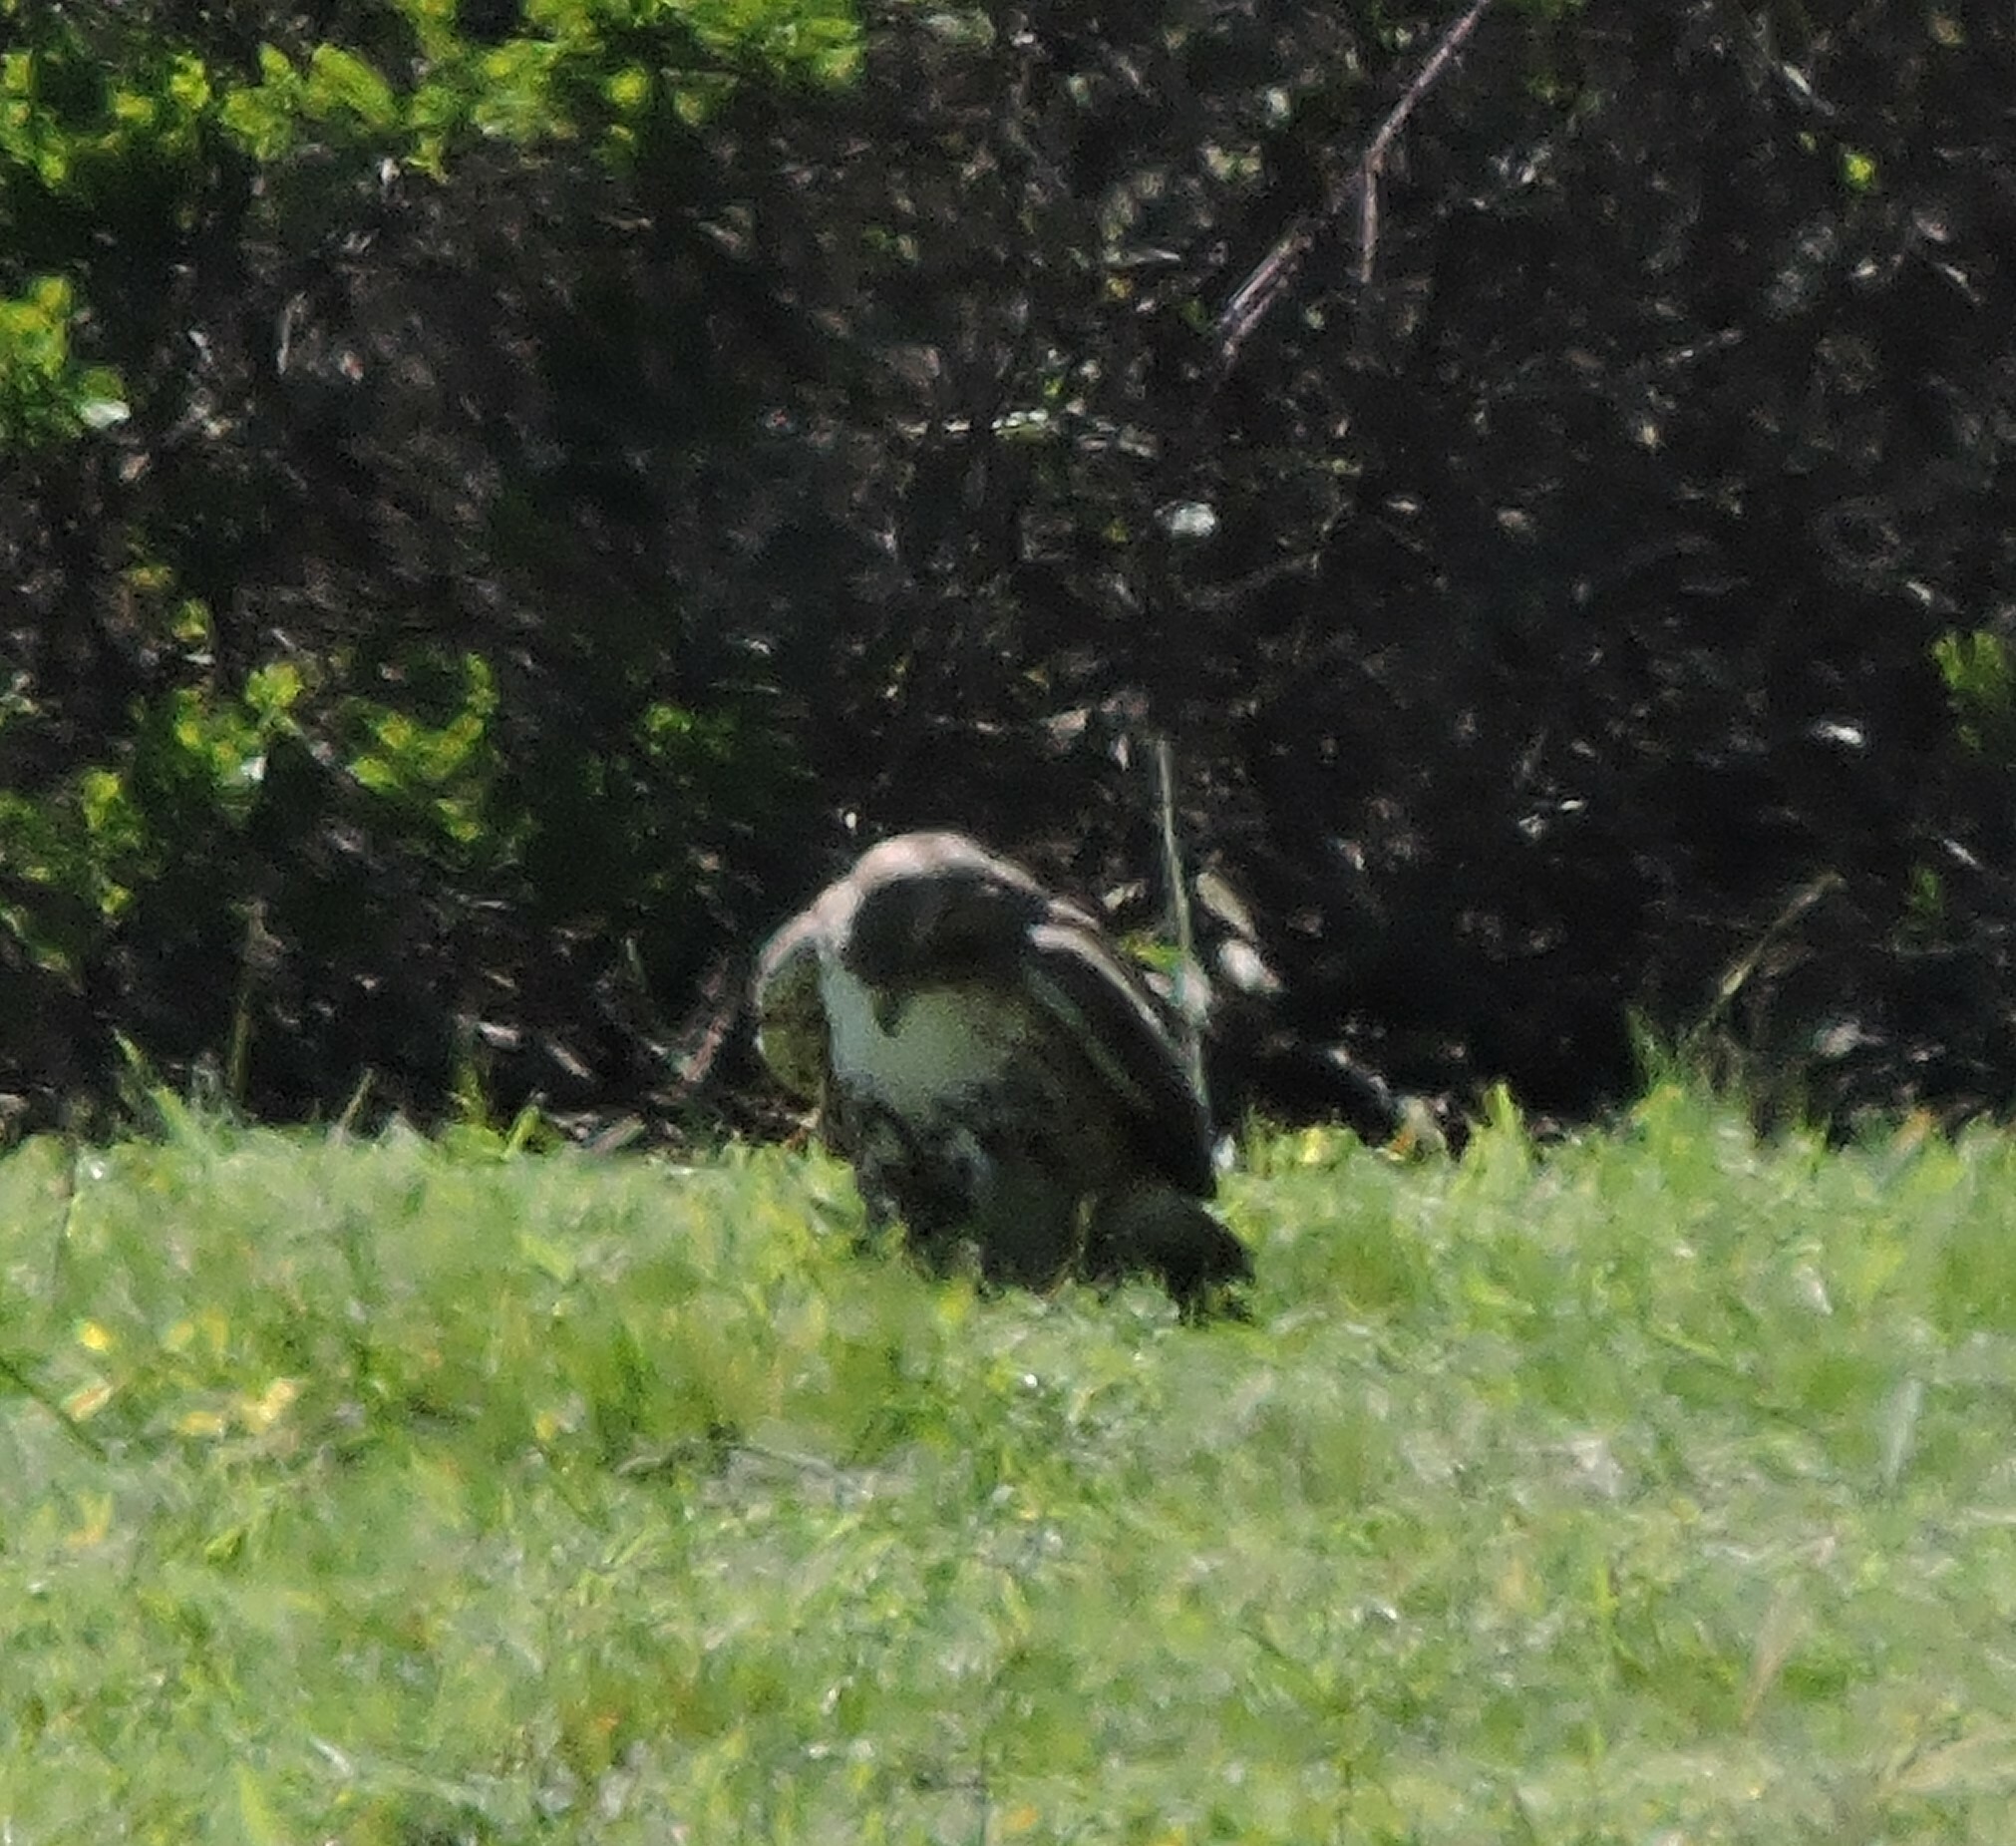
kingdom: Animalia
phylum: Chordata
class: Aves
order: Accipitriformes
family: Accipitridae
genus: Buteo
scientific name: Buteo jamaicensis
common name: Red-tailed hawk
